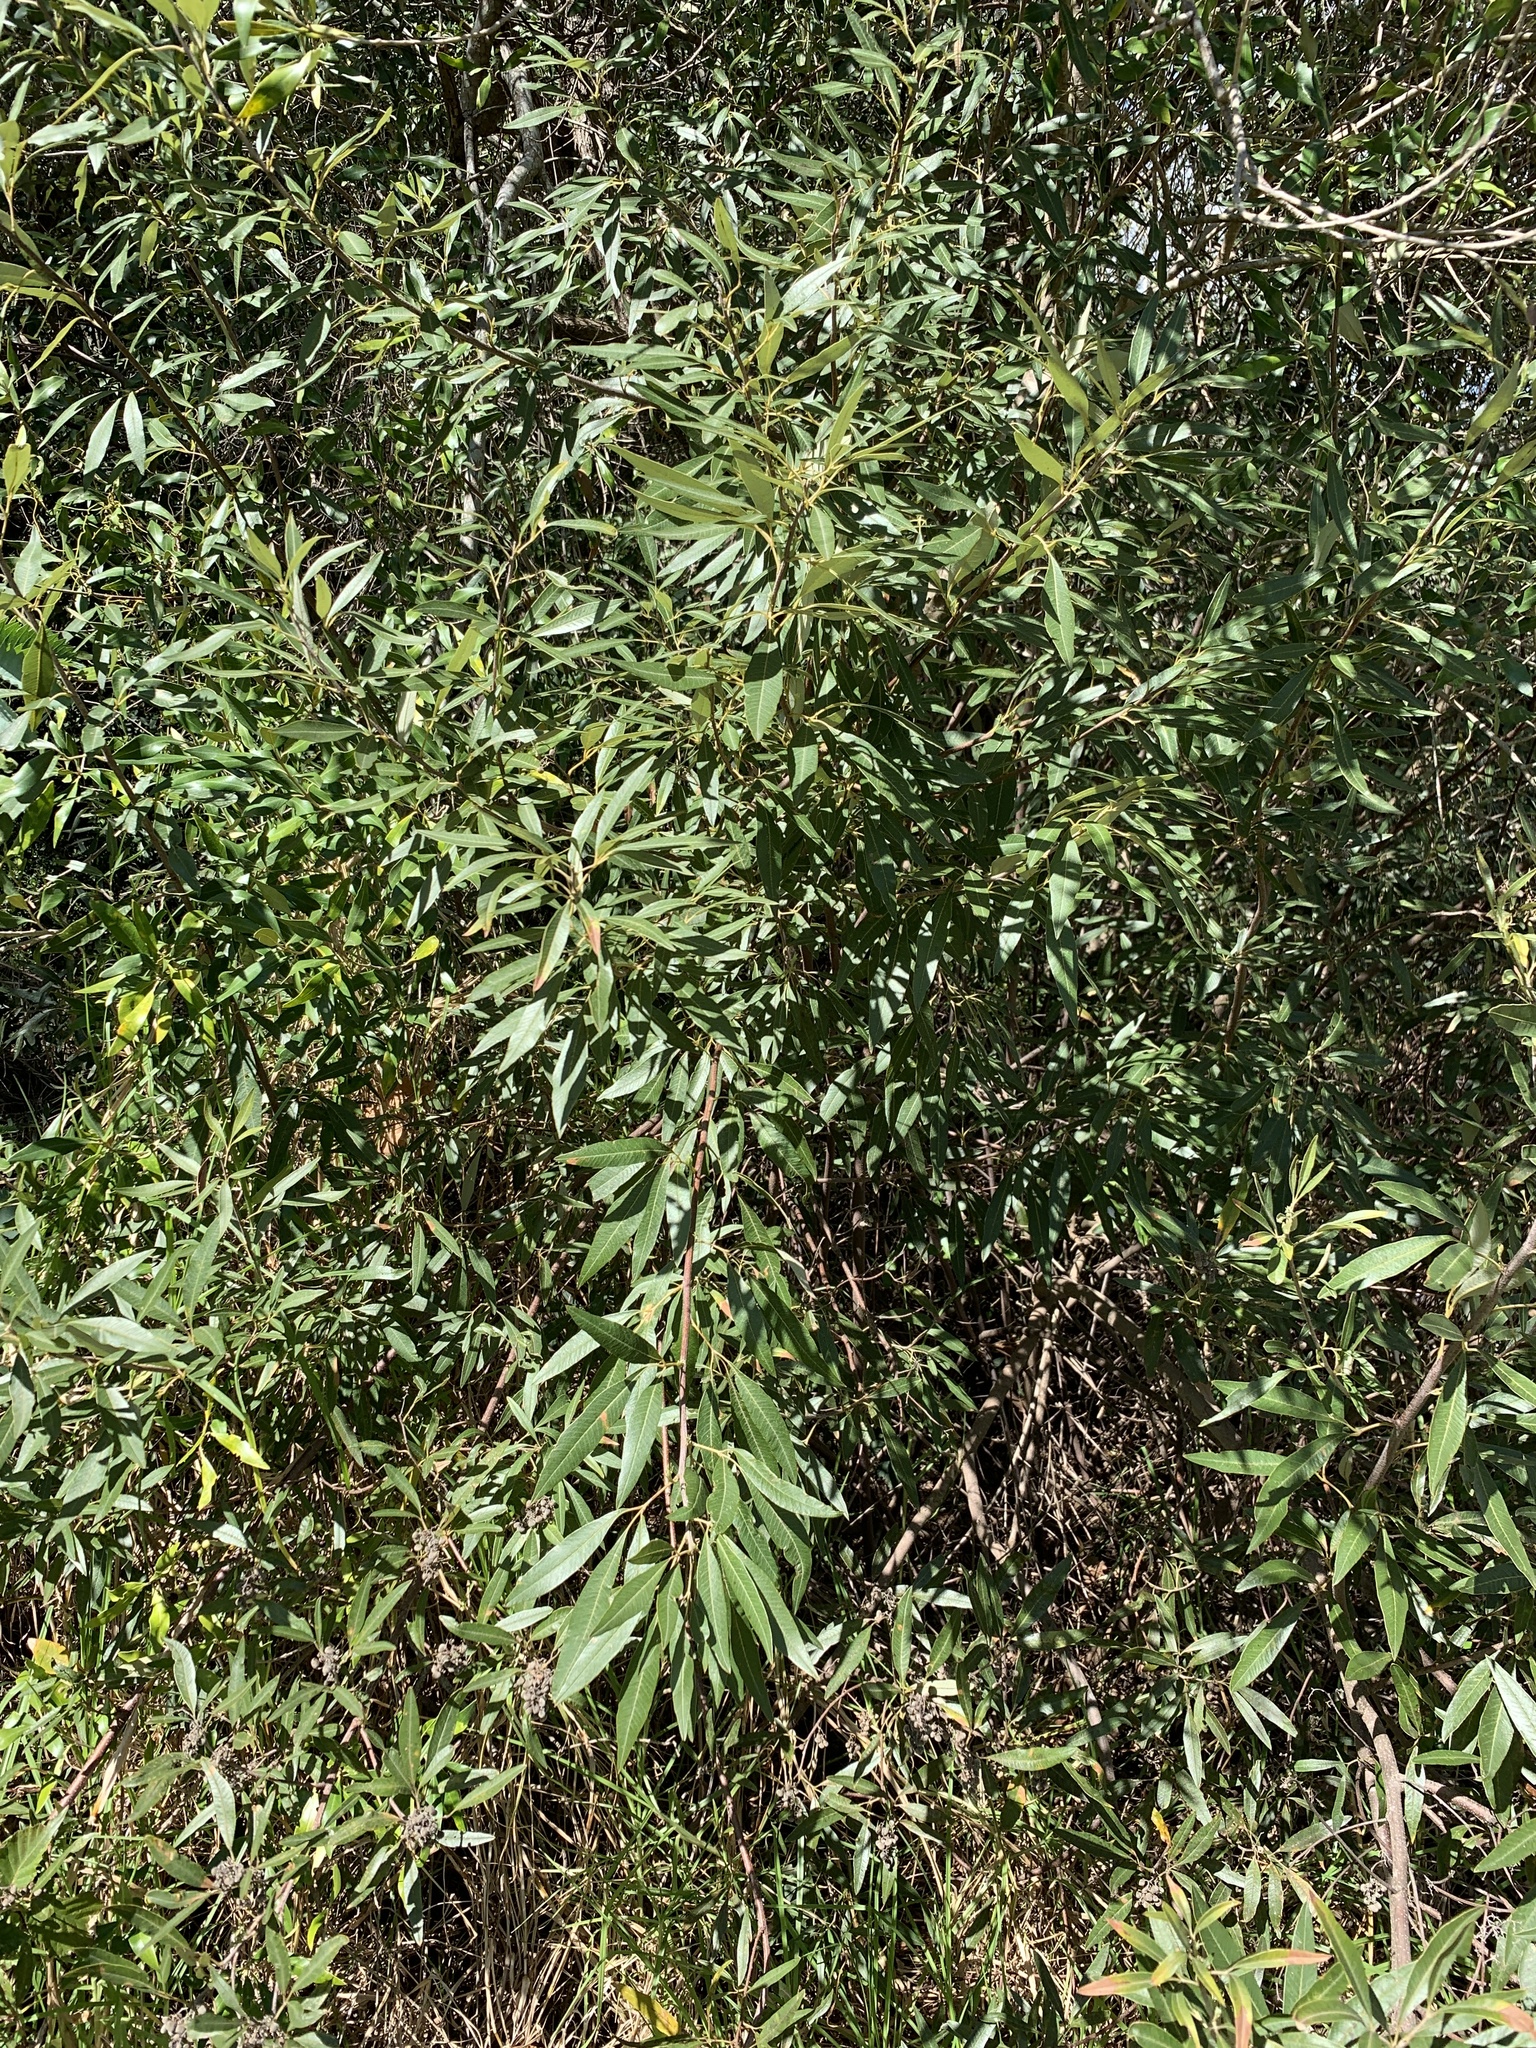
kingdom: Plantae
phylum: Tracheophyta
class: Magnoliopsida
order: Sapindales
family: Anacardiaceae
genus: Searsia
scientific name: Searsia angustifolia
